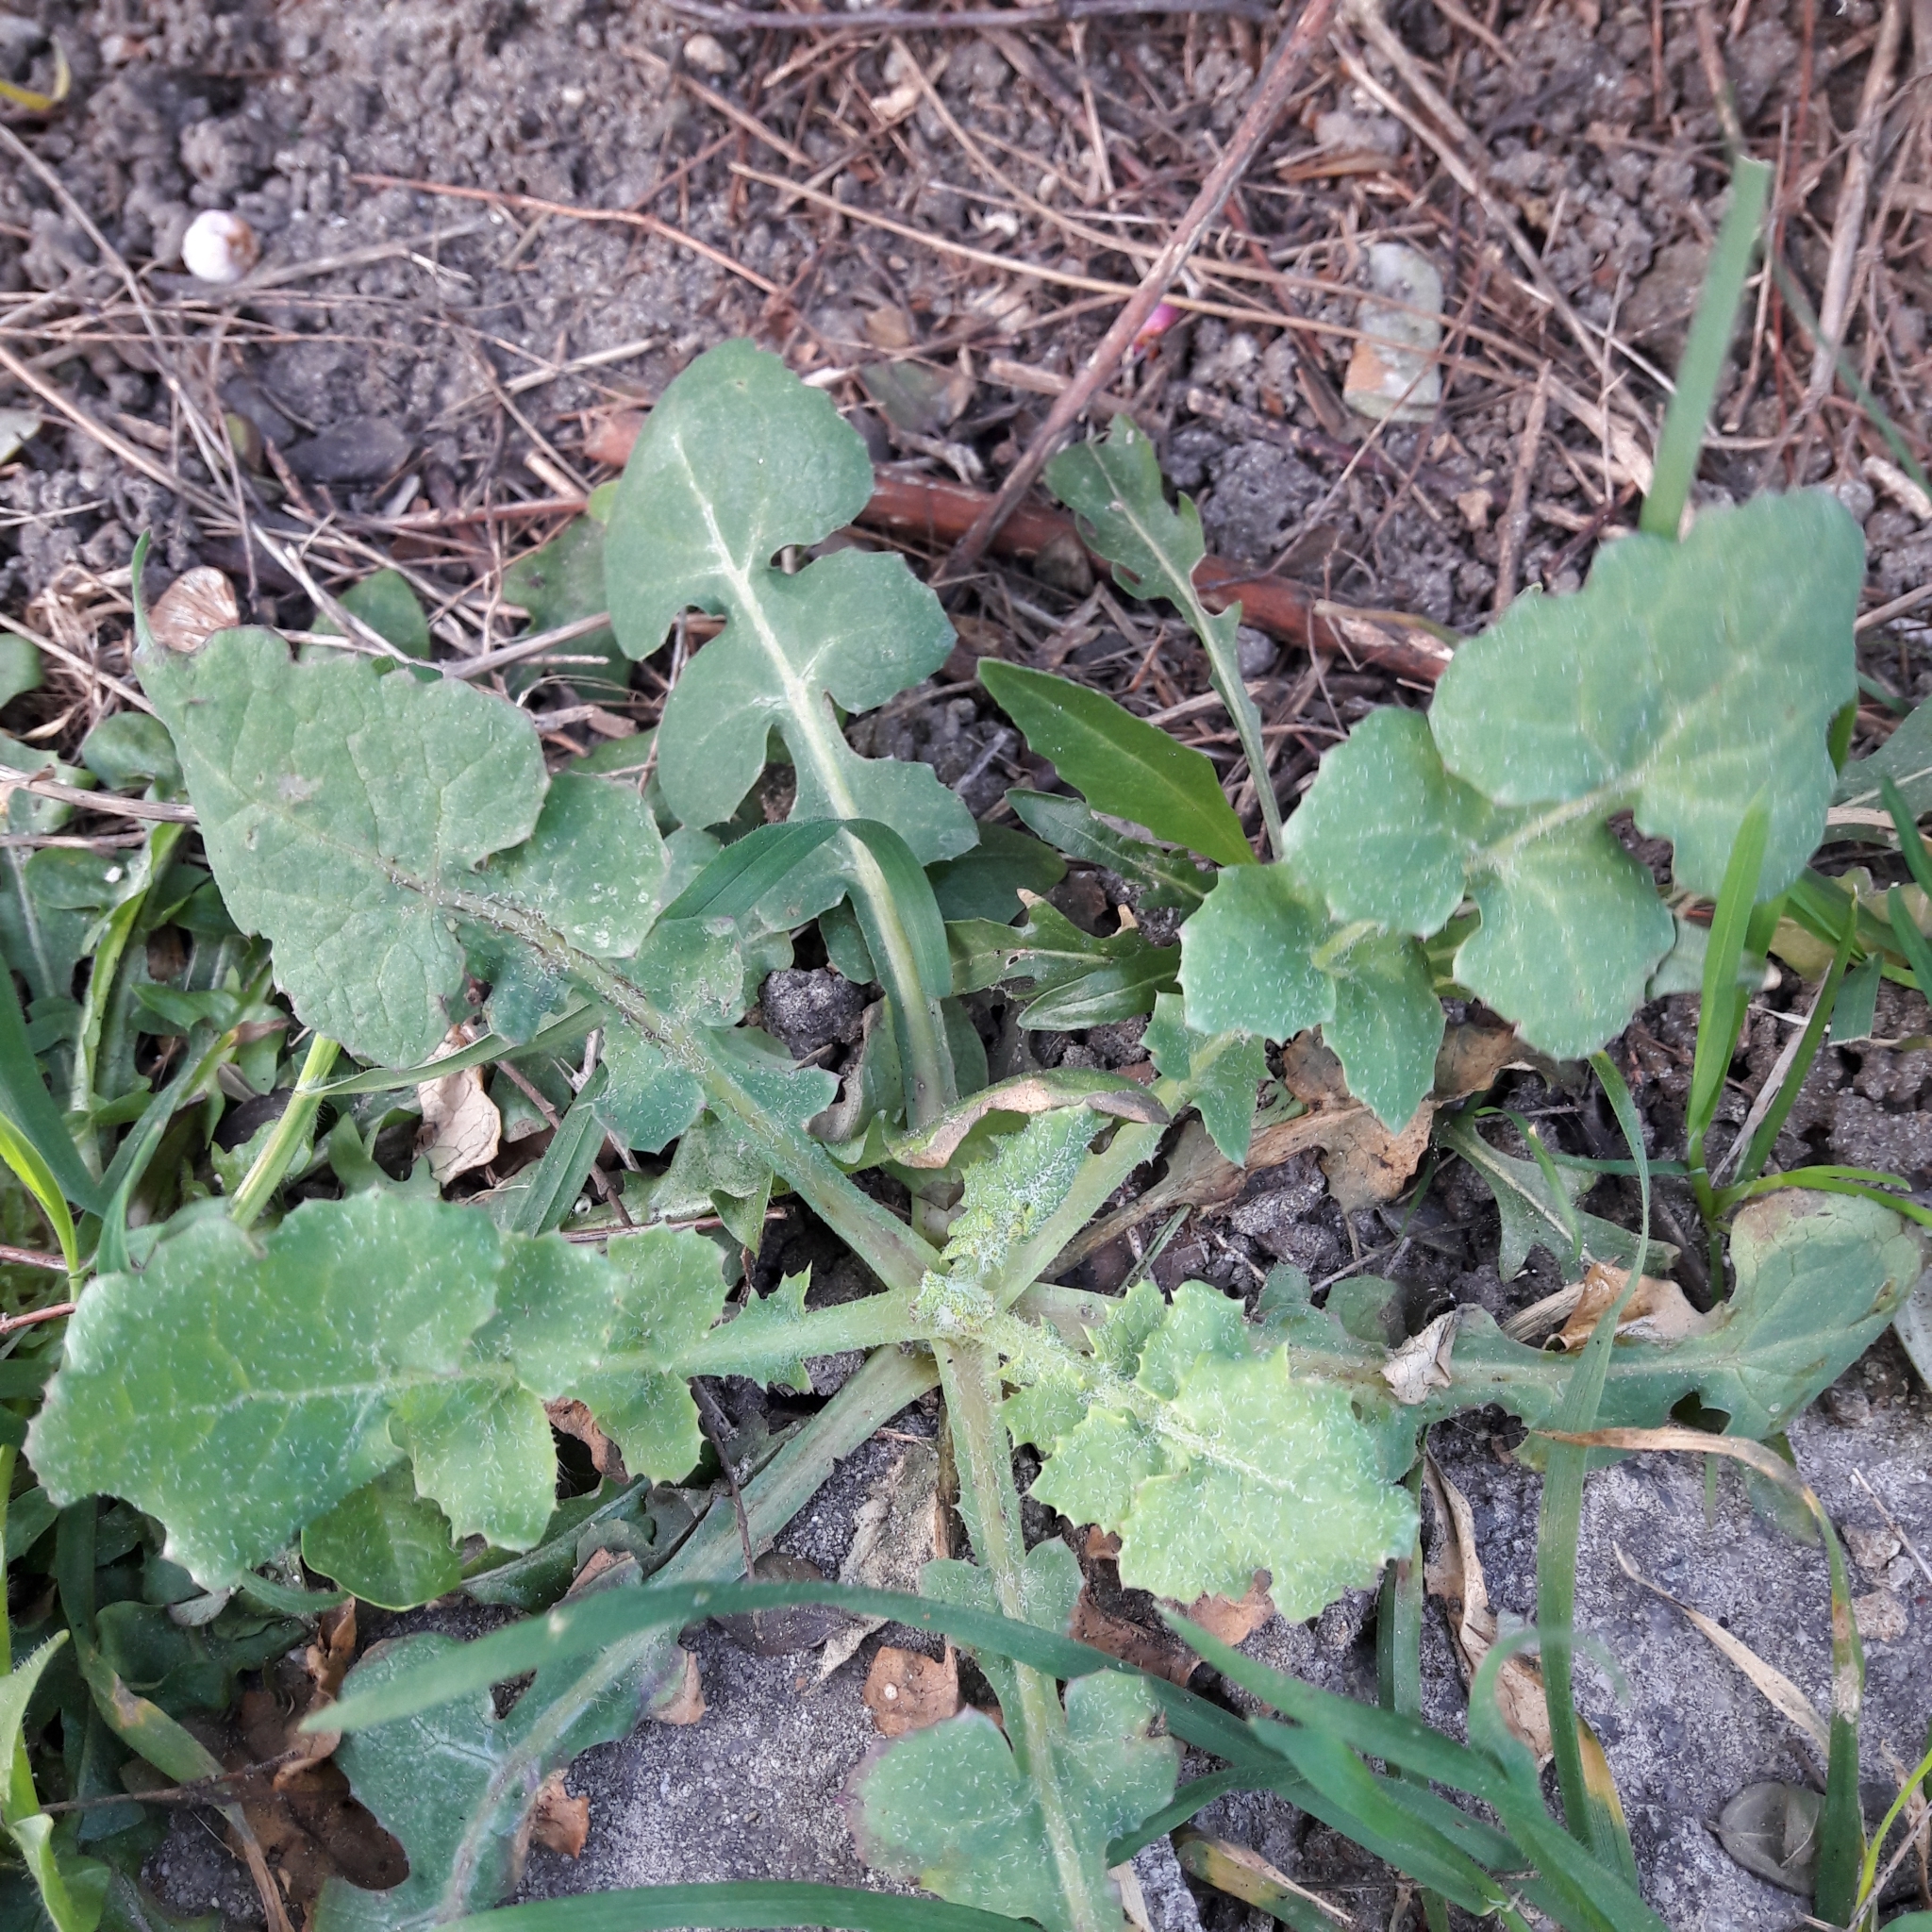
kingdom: Plantae
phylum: Tracheophyta
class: Magnoliopsida
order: Asterales
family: Asteraceae
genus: Sonchus
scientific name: Sonchus oleraceus
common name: Common sowthistle
